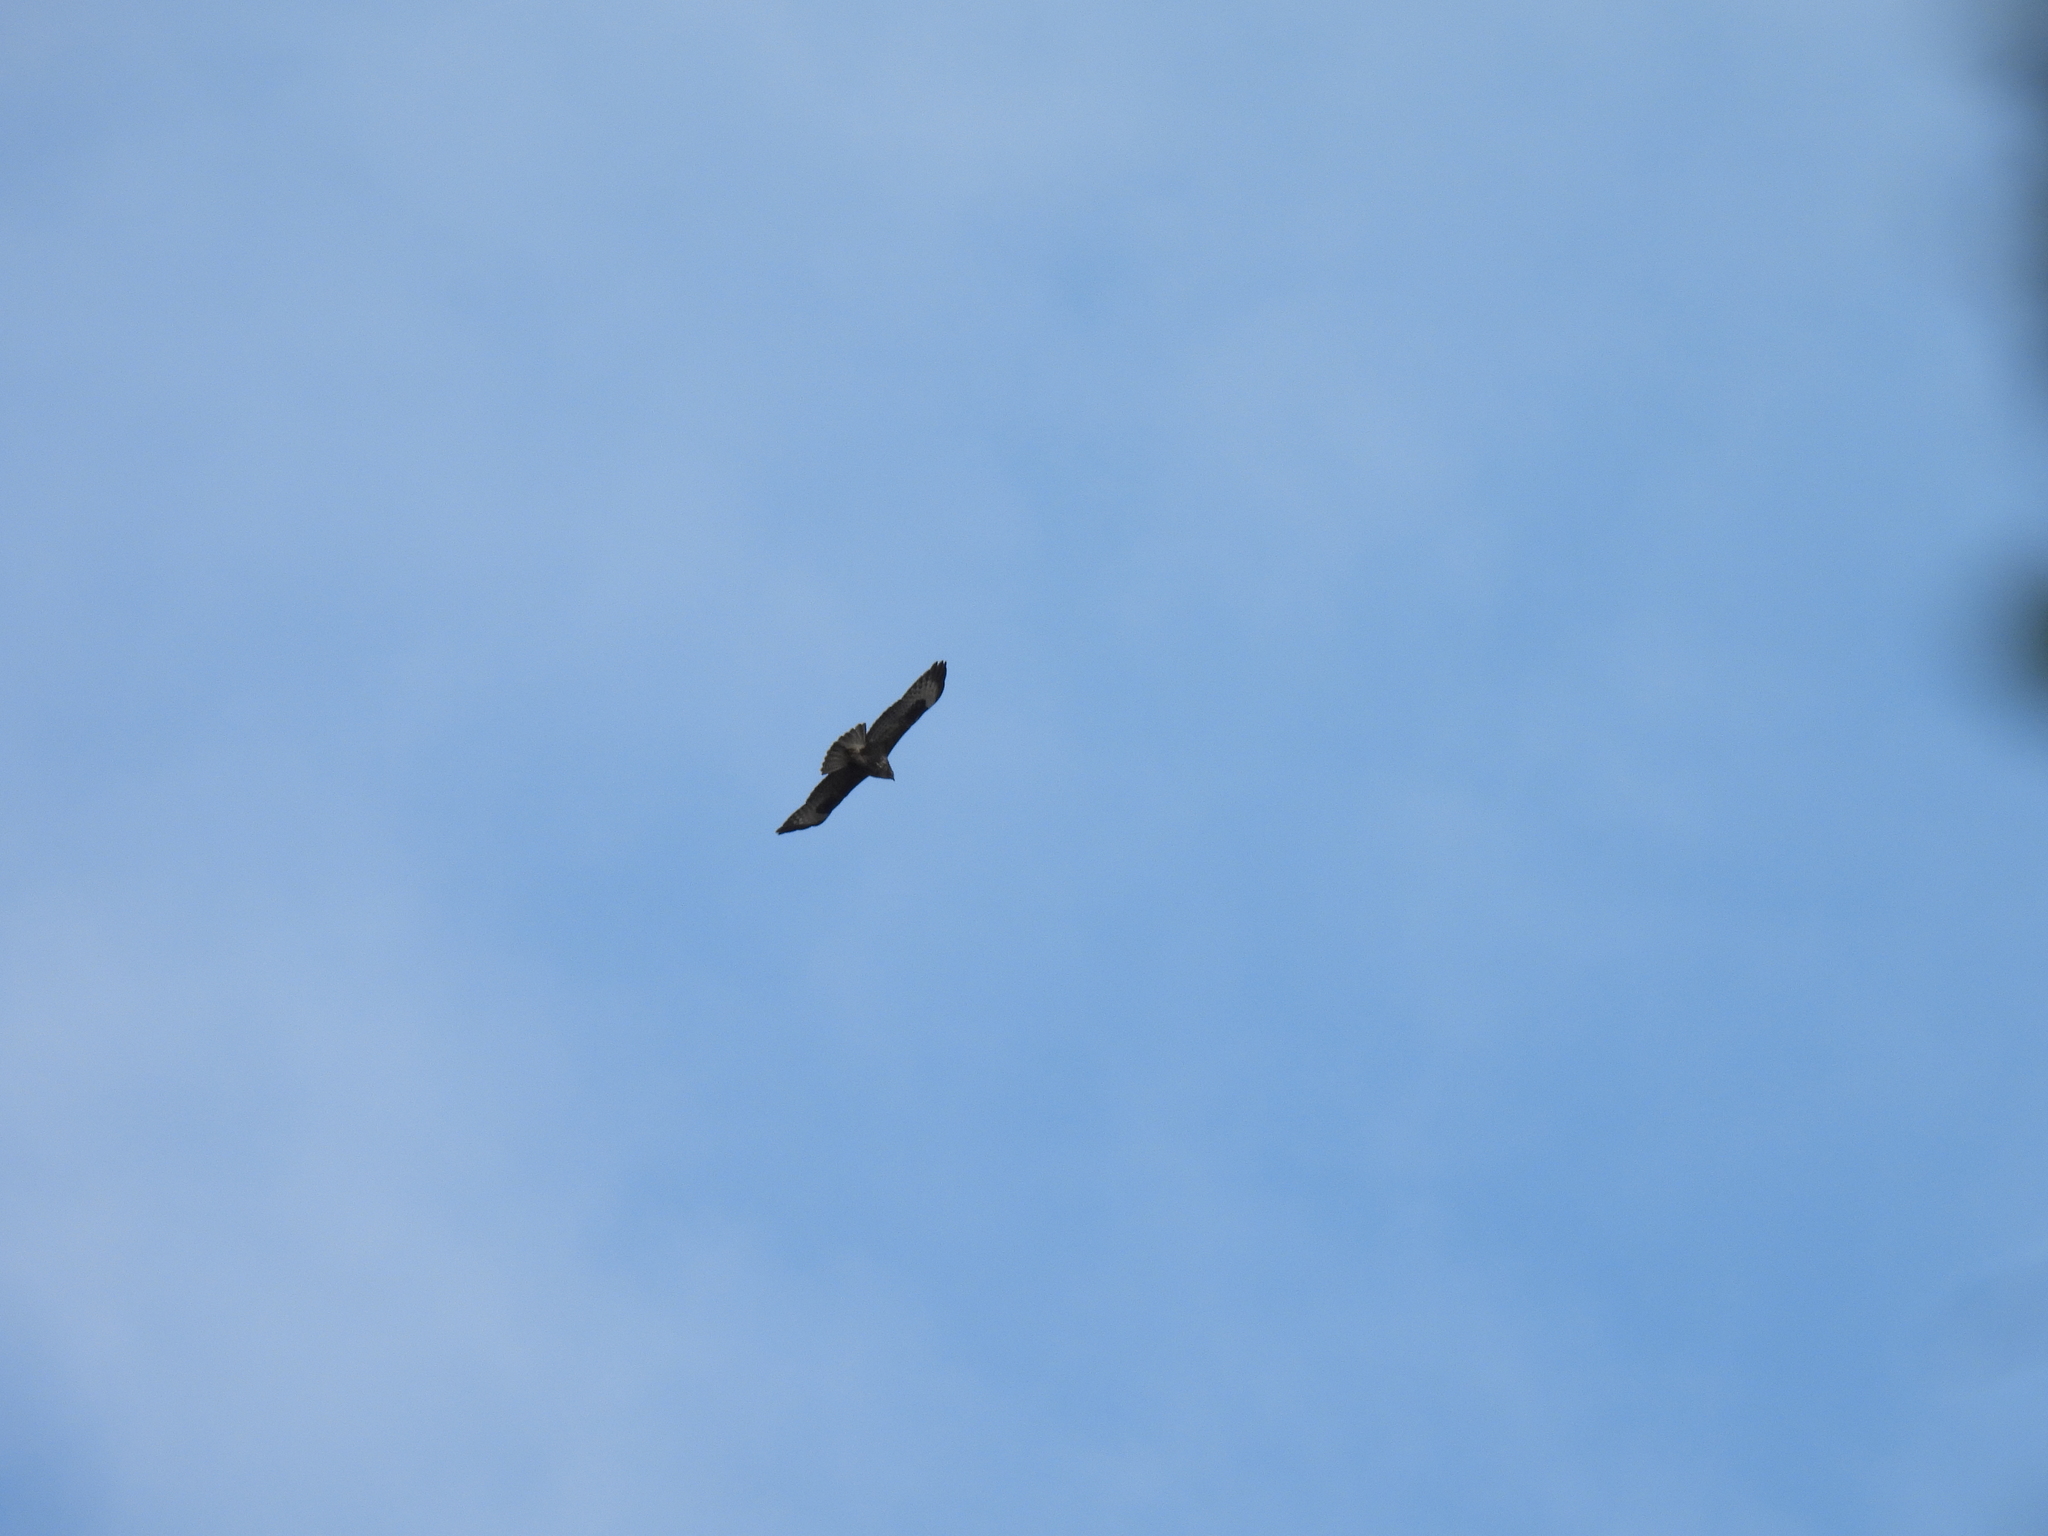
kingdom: Animalia
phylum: Chordata
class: Aves
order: Accipitriformes
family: Accipitridae
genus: Buteo
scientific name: Buteo buteo
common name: Common buzzard
